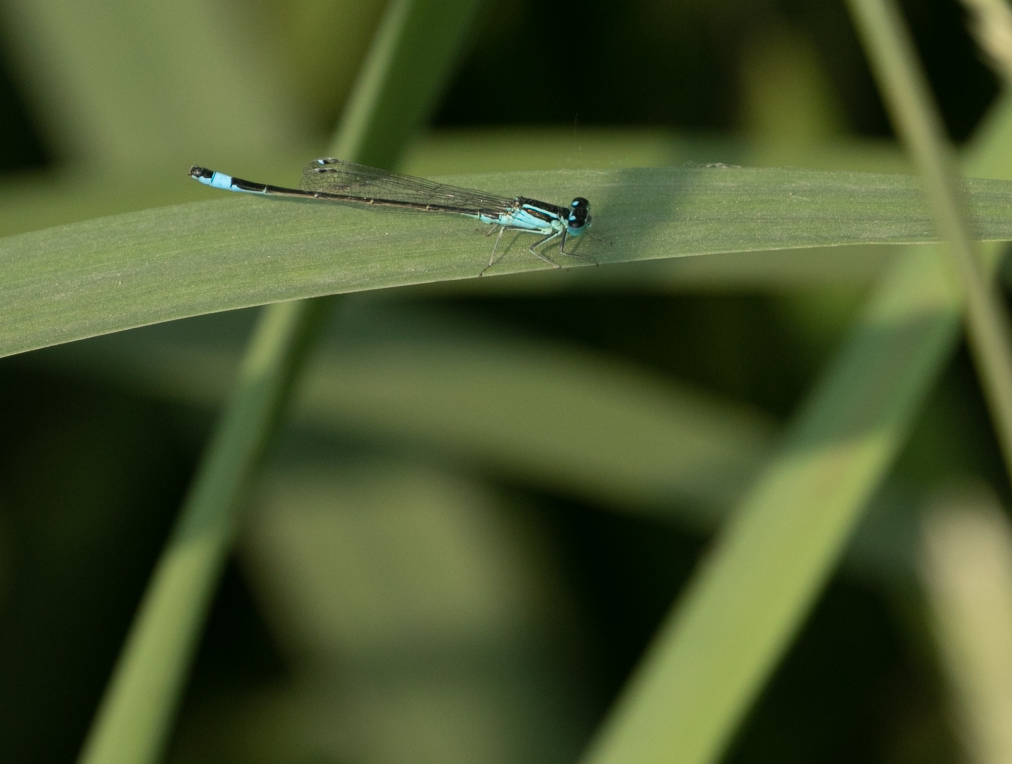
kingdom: Animalia
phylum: Arthropoda
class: Insecta
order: Odonata
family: Coenagrionidae
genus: Ischnura
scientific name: Ischnura elegans
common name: Blue-tailed damselfly
